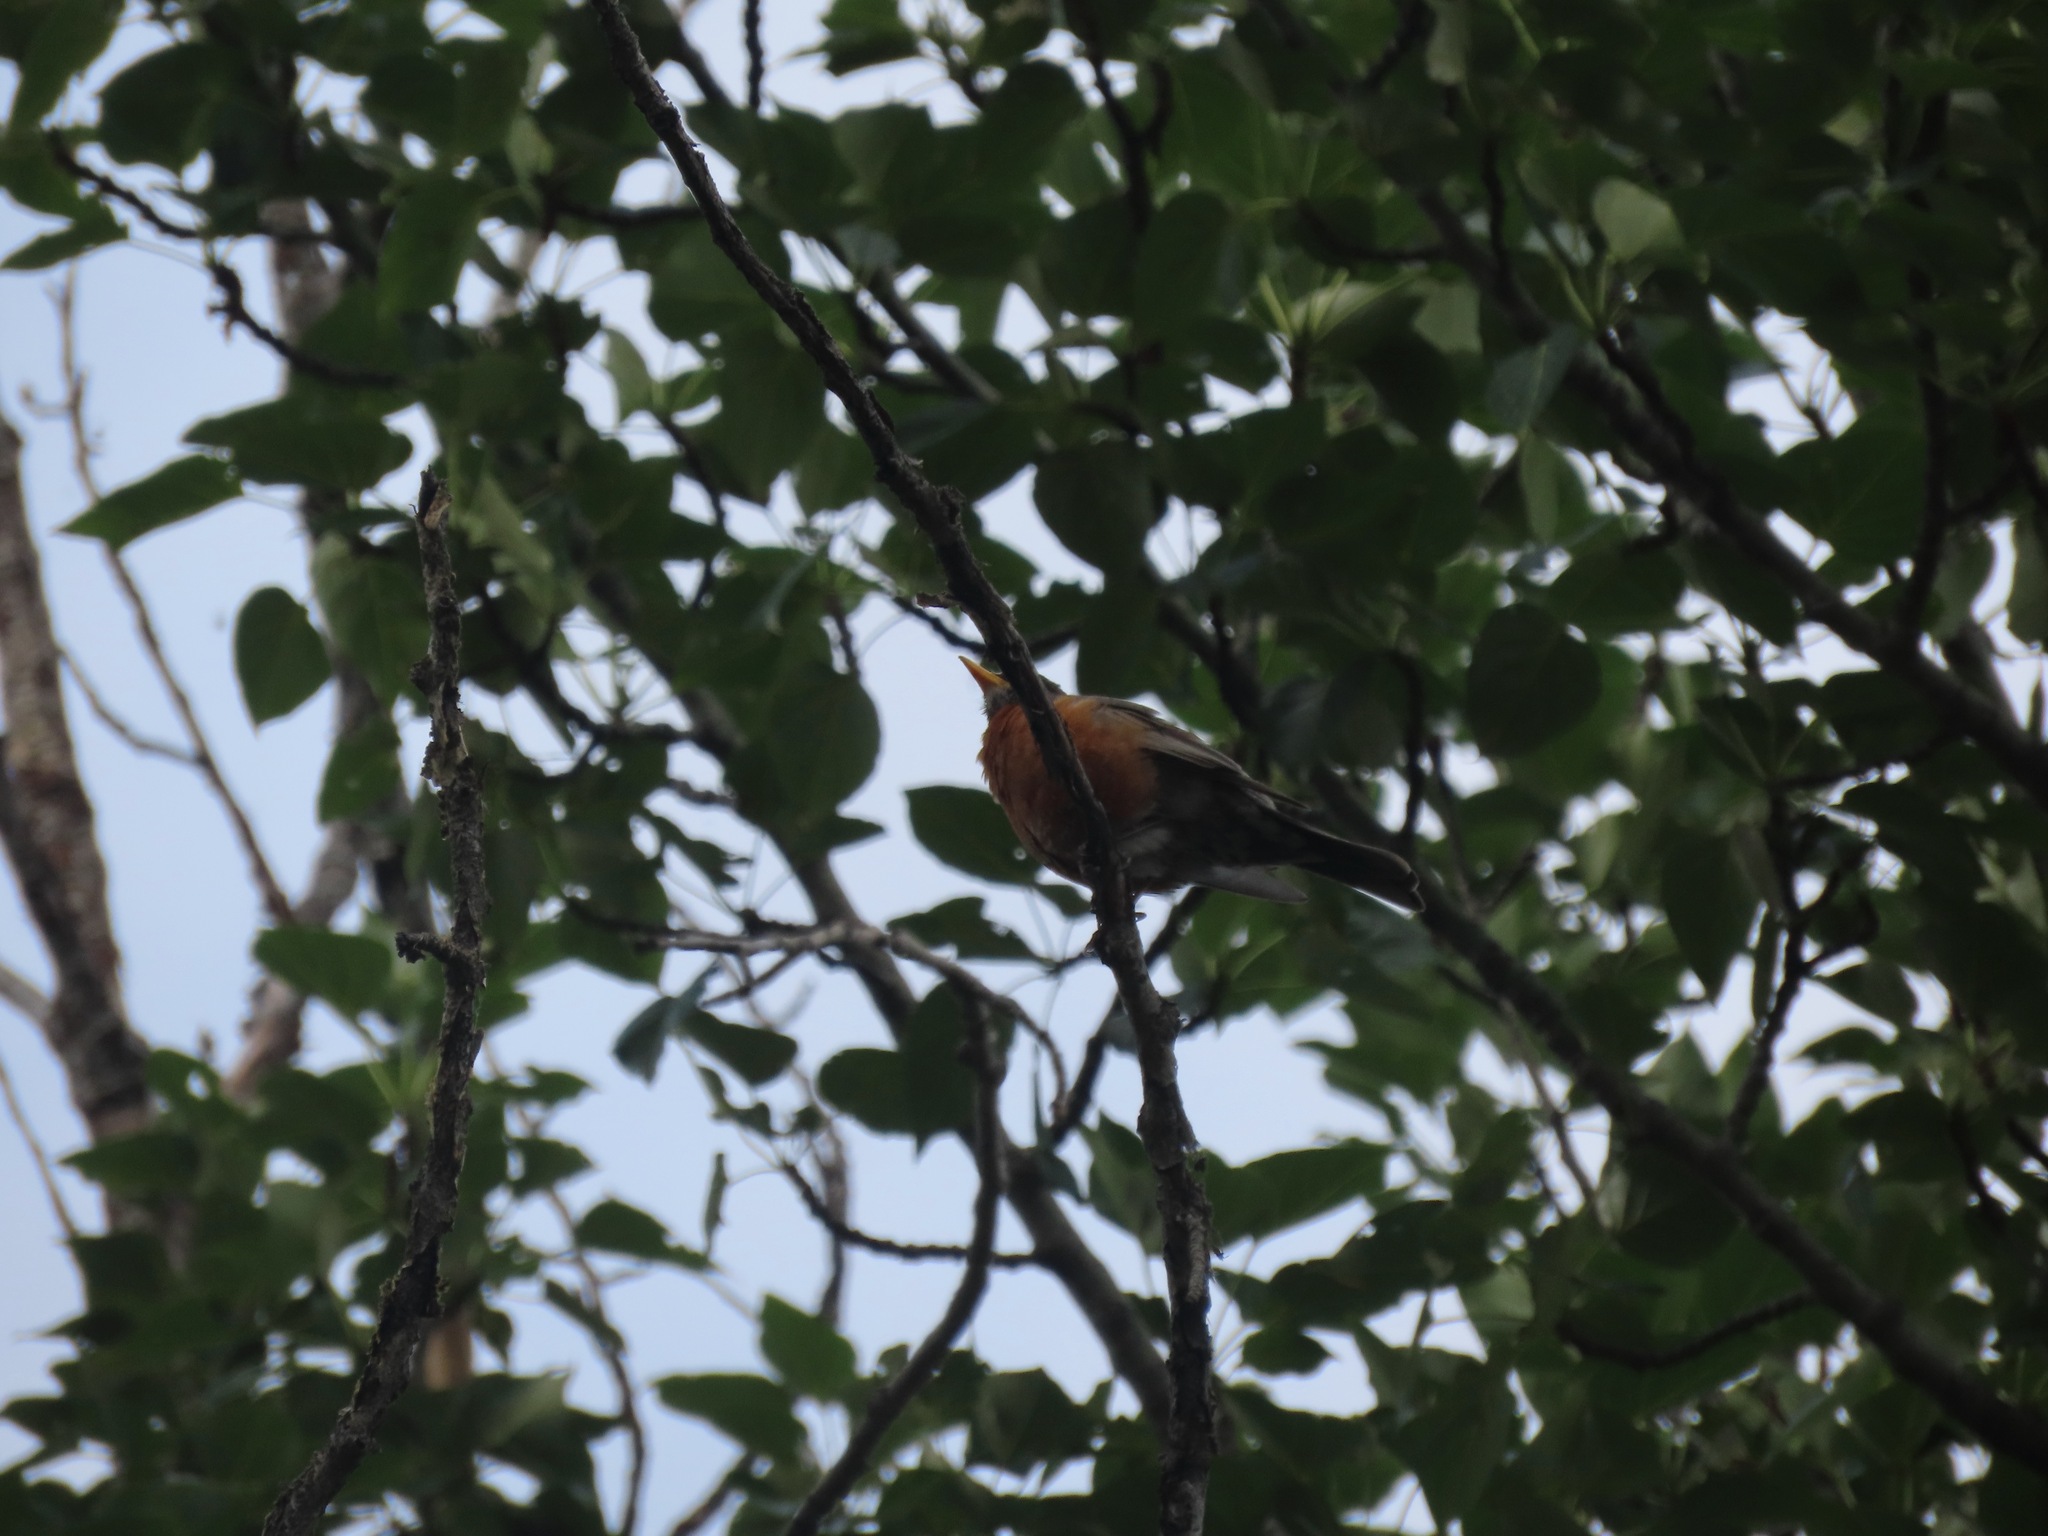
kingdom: Animalia
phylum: Chordata
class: Aves
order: Passeriformes
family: Turdidae
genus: Turdus
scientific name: Turdus migratorius
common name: American robin
